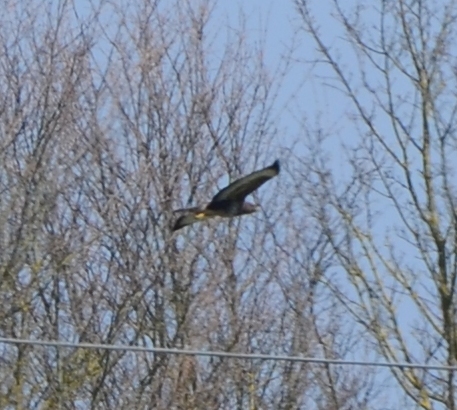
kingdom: Animalia
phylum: Chordata
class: Aves
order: Accipitriformes
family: Accipitridae
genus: Buteo
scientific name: Buteo buteo
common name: Common buzzard
